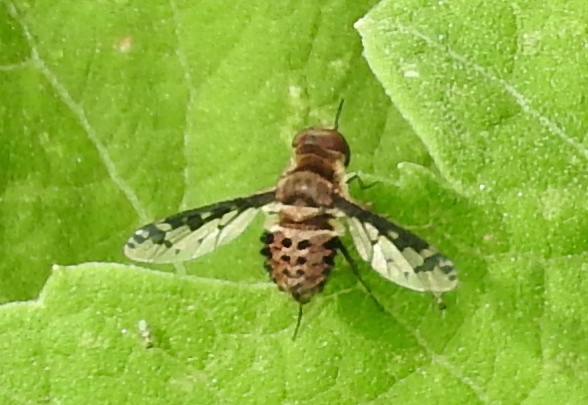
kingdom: Animalia
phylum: Arthropoda
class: Insecta
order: Diptera
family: Bombyliidae
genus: Lepidanthrax
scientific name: Lepidanthrax
